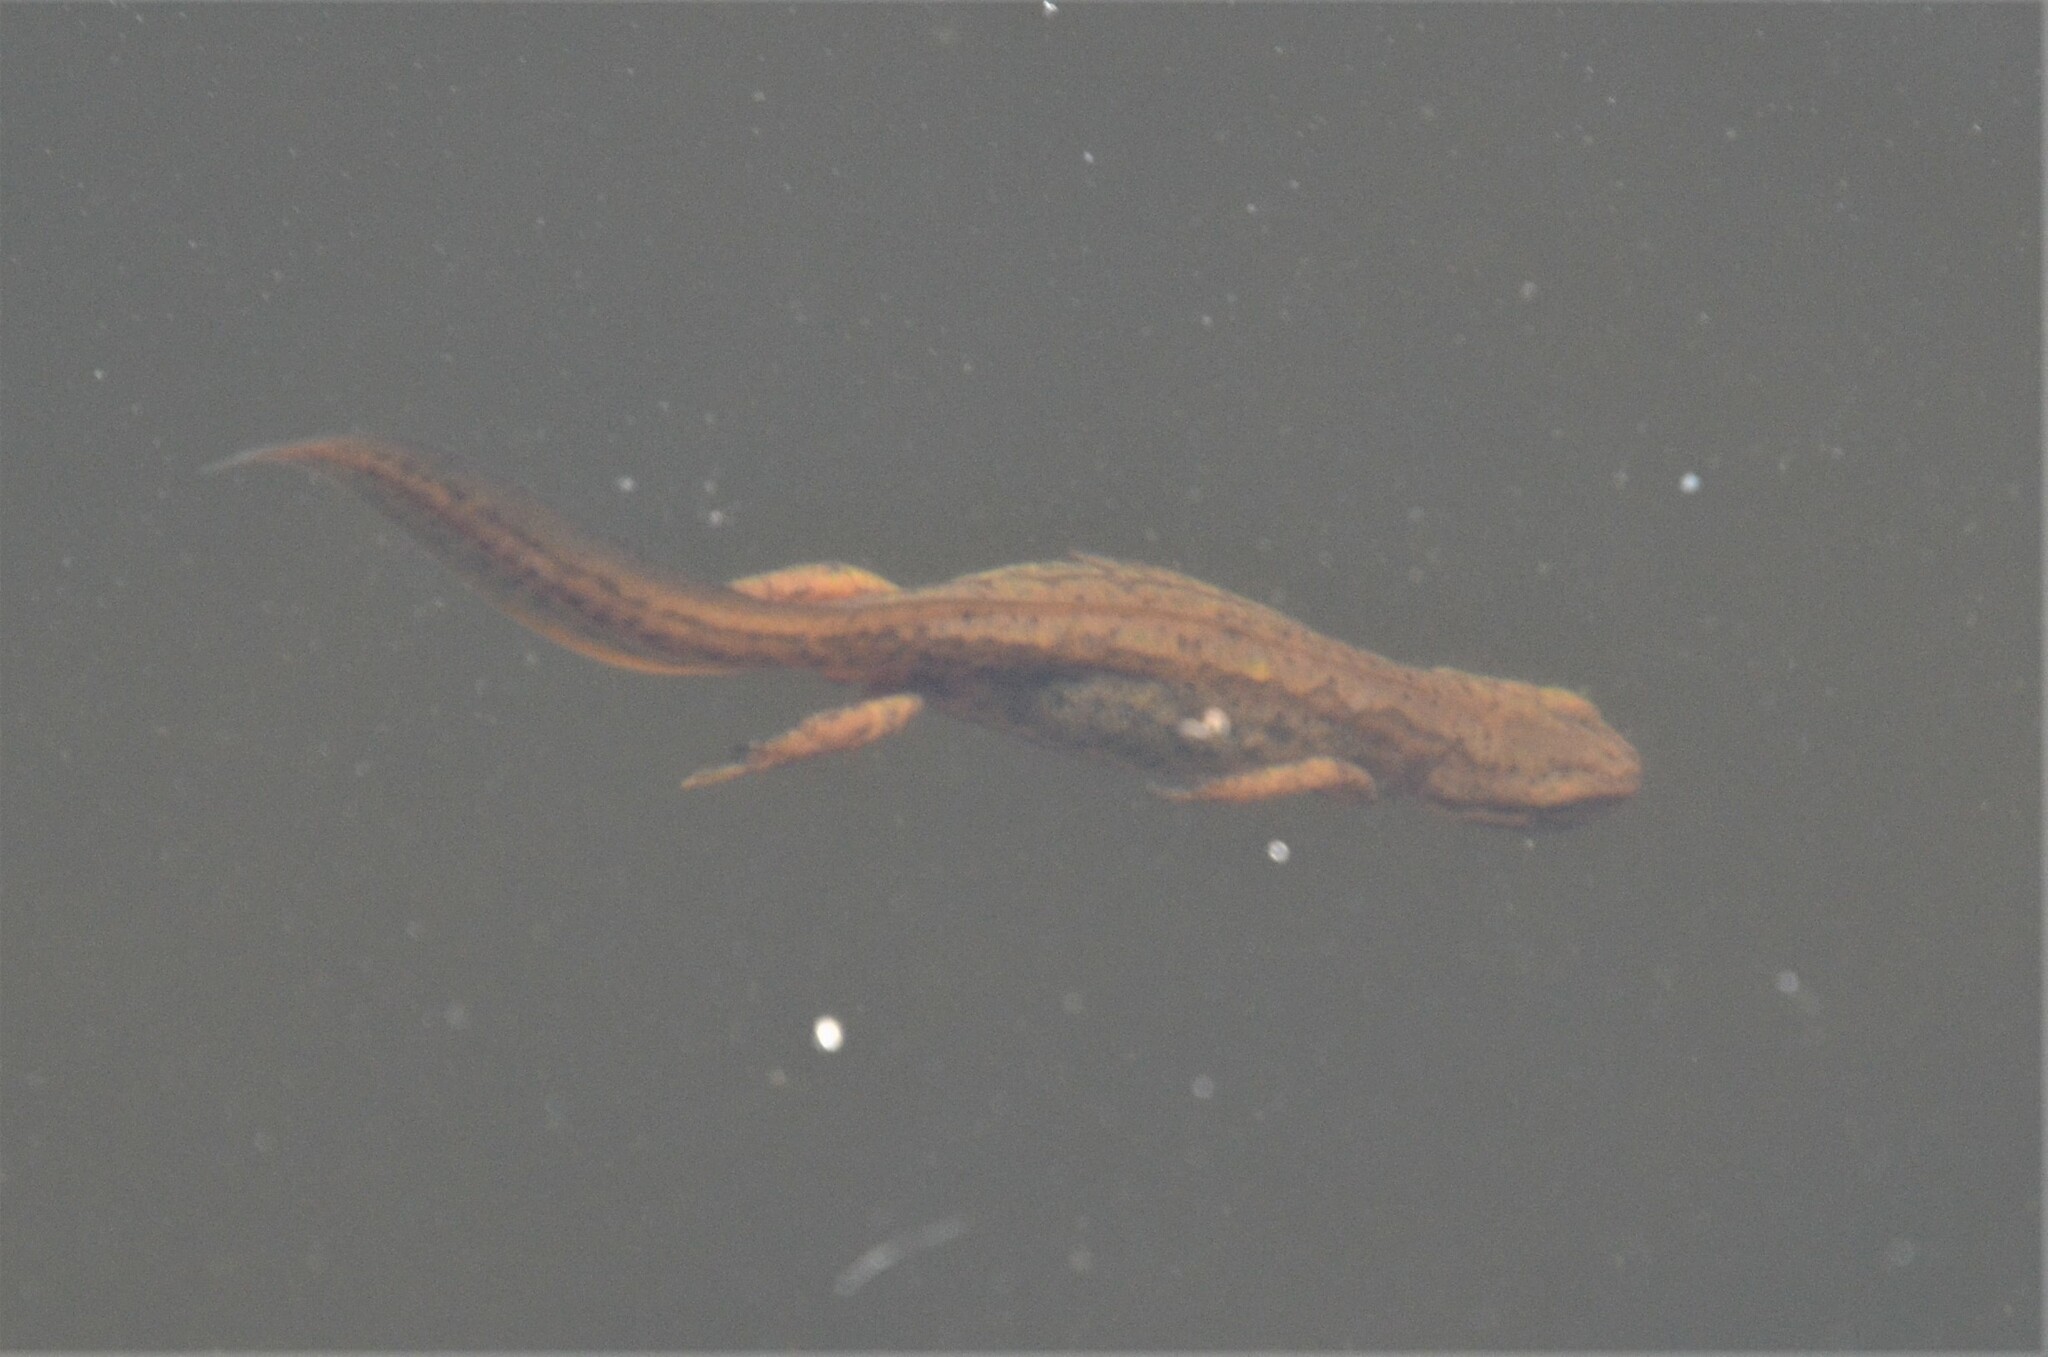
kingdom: Animalia
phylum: Chordata
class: Amphibia
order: Caudata
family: Salamandridae
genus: Lissotriton
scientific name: Lissotriton vulgaris
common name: Smooth newt
